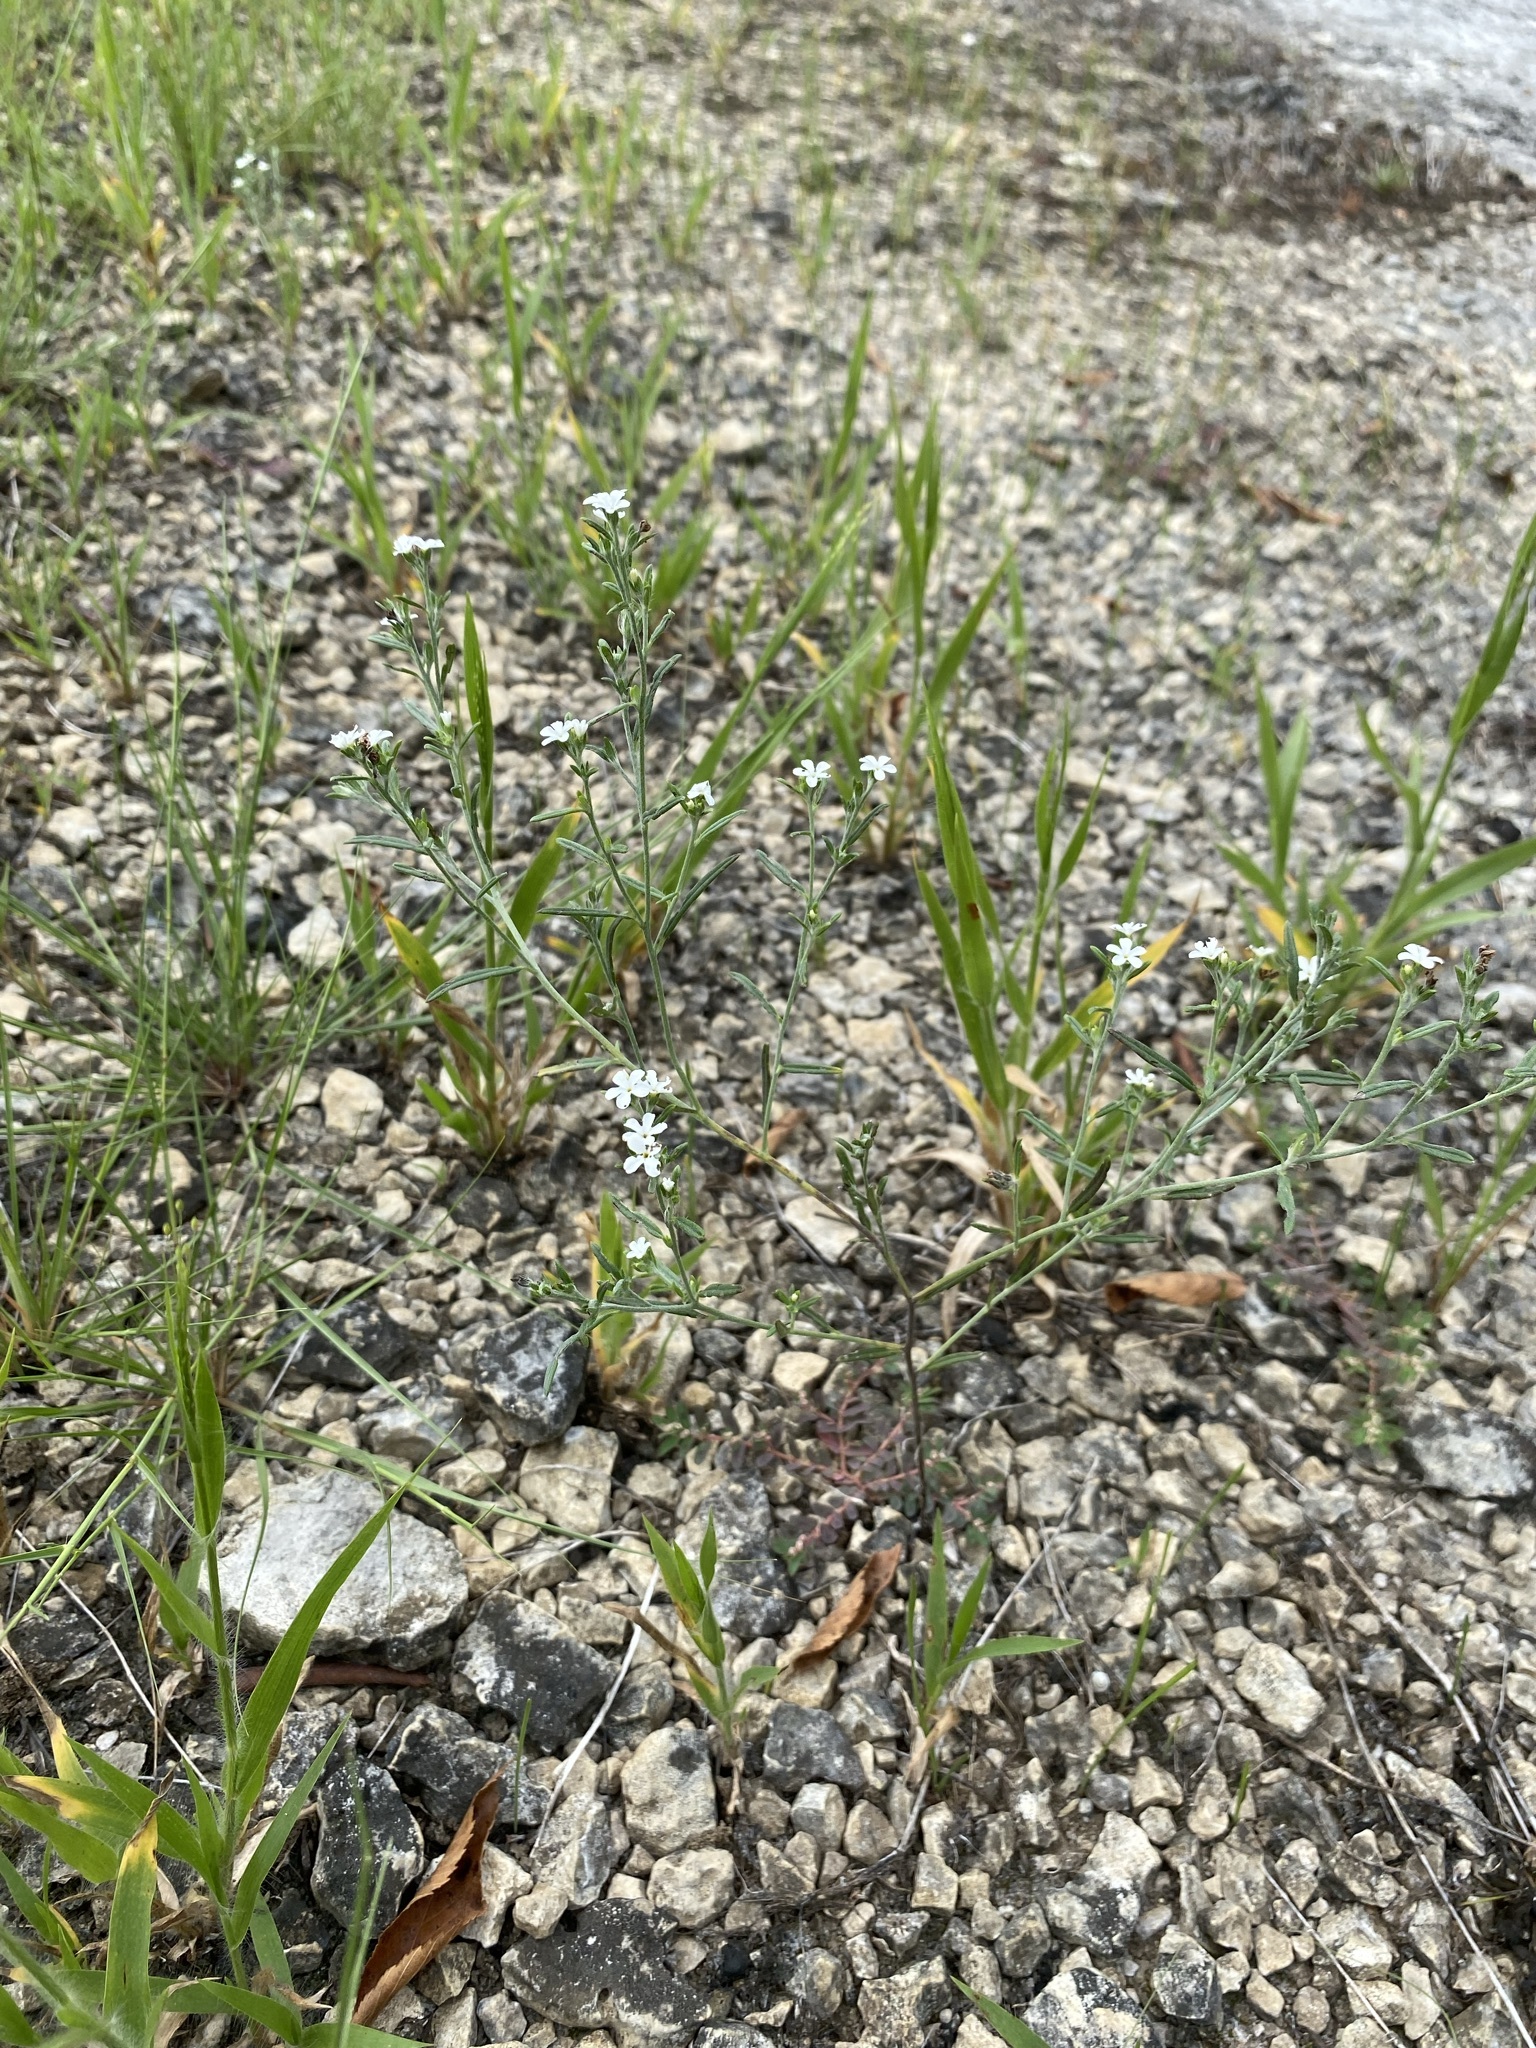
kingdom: Plantae
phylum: Tracheophyta
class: Magnoliopsida
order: Boraginales
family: Heliotropiaceae
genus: Euploca
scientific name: Euploca tenella
